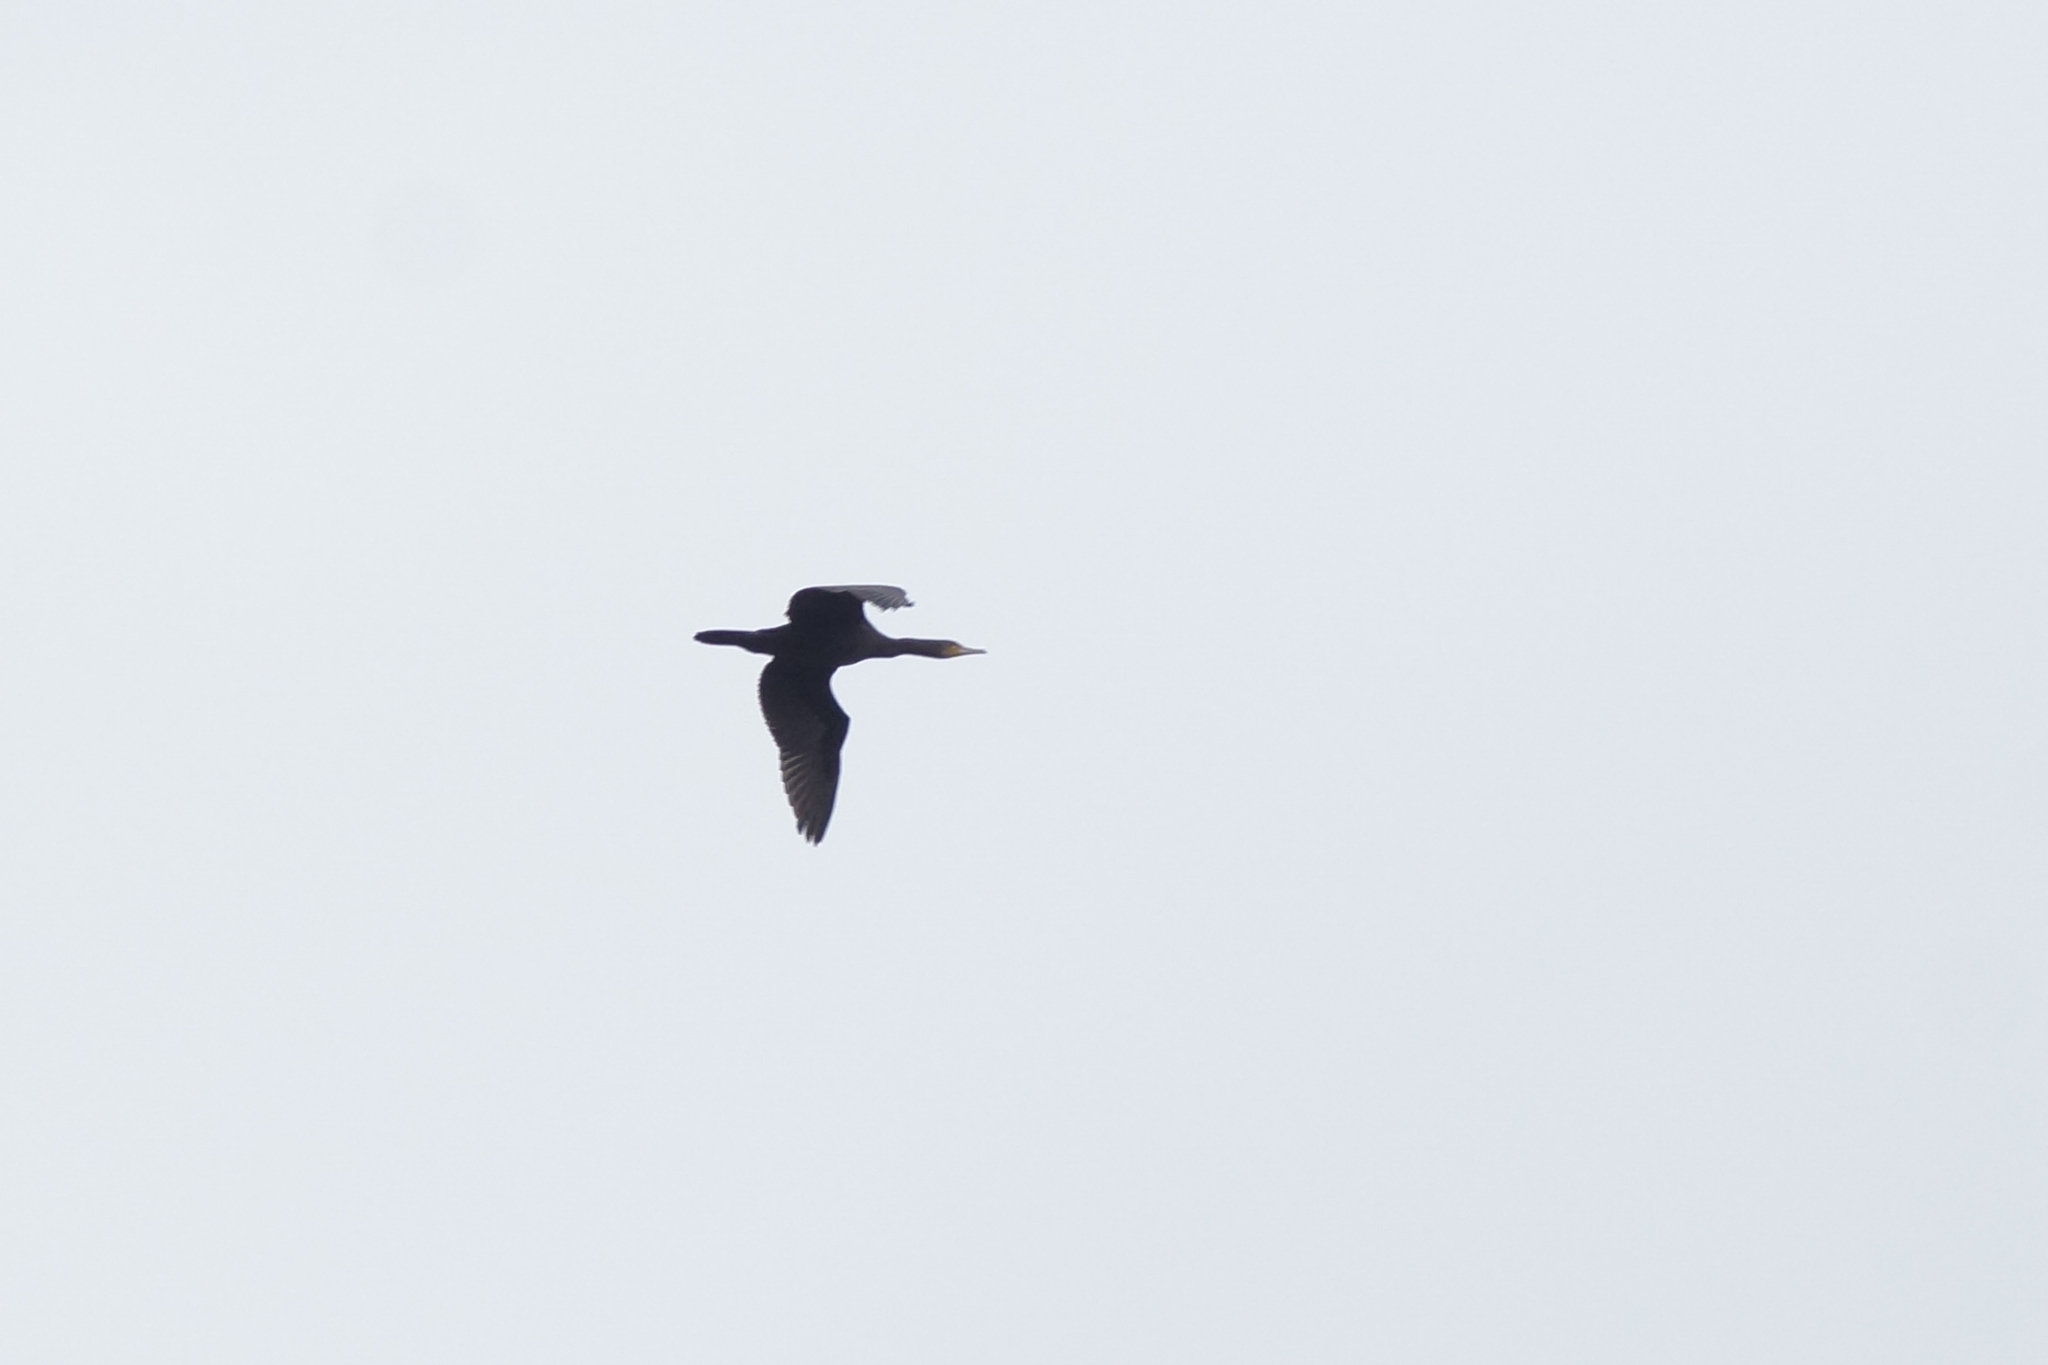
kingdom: Animalia
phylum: Chordata
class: Aves
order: Suliformes
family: Phalacrocoracidae
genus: Phalacrocorax
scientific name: Phalacrocorax carbo
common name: Great cormorant
